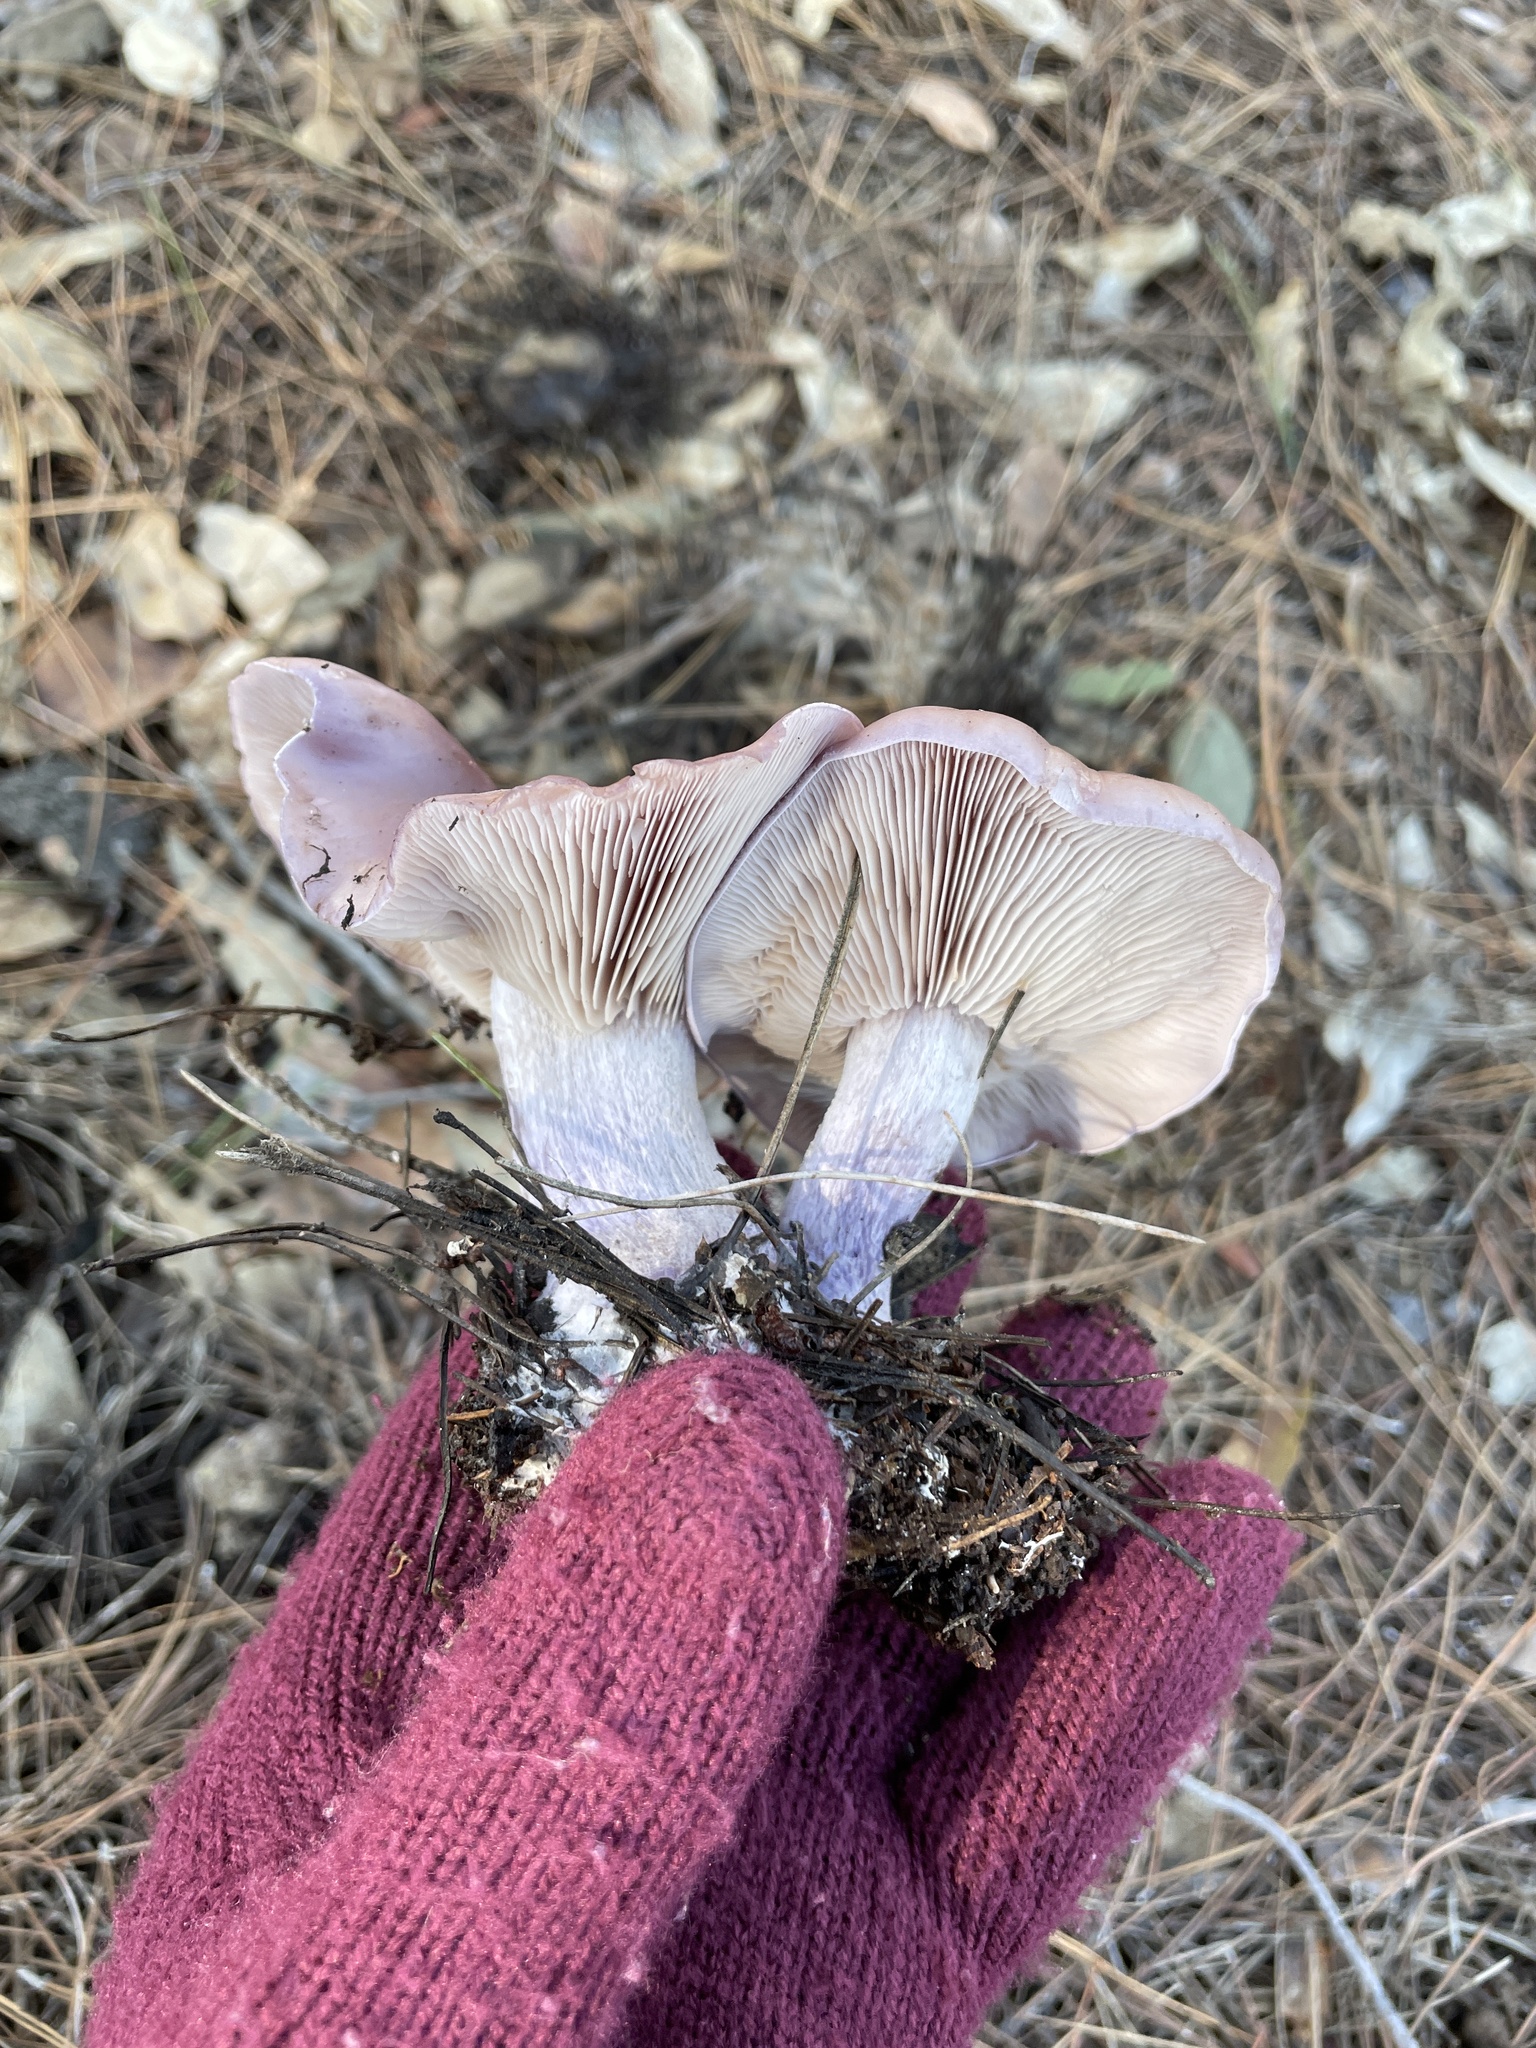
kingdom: Fungi
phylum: Basidiomycota
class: Agaricomycetes
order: Agaricales
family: Tricholomataceae
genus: Collybia
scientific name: Collybia
